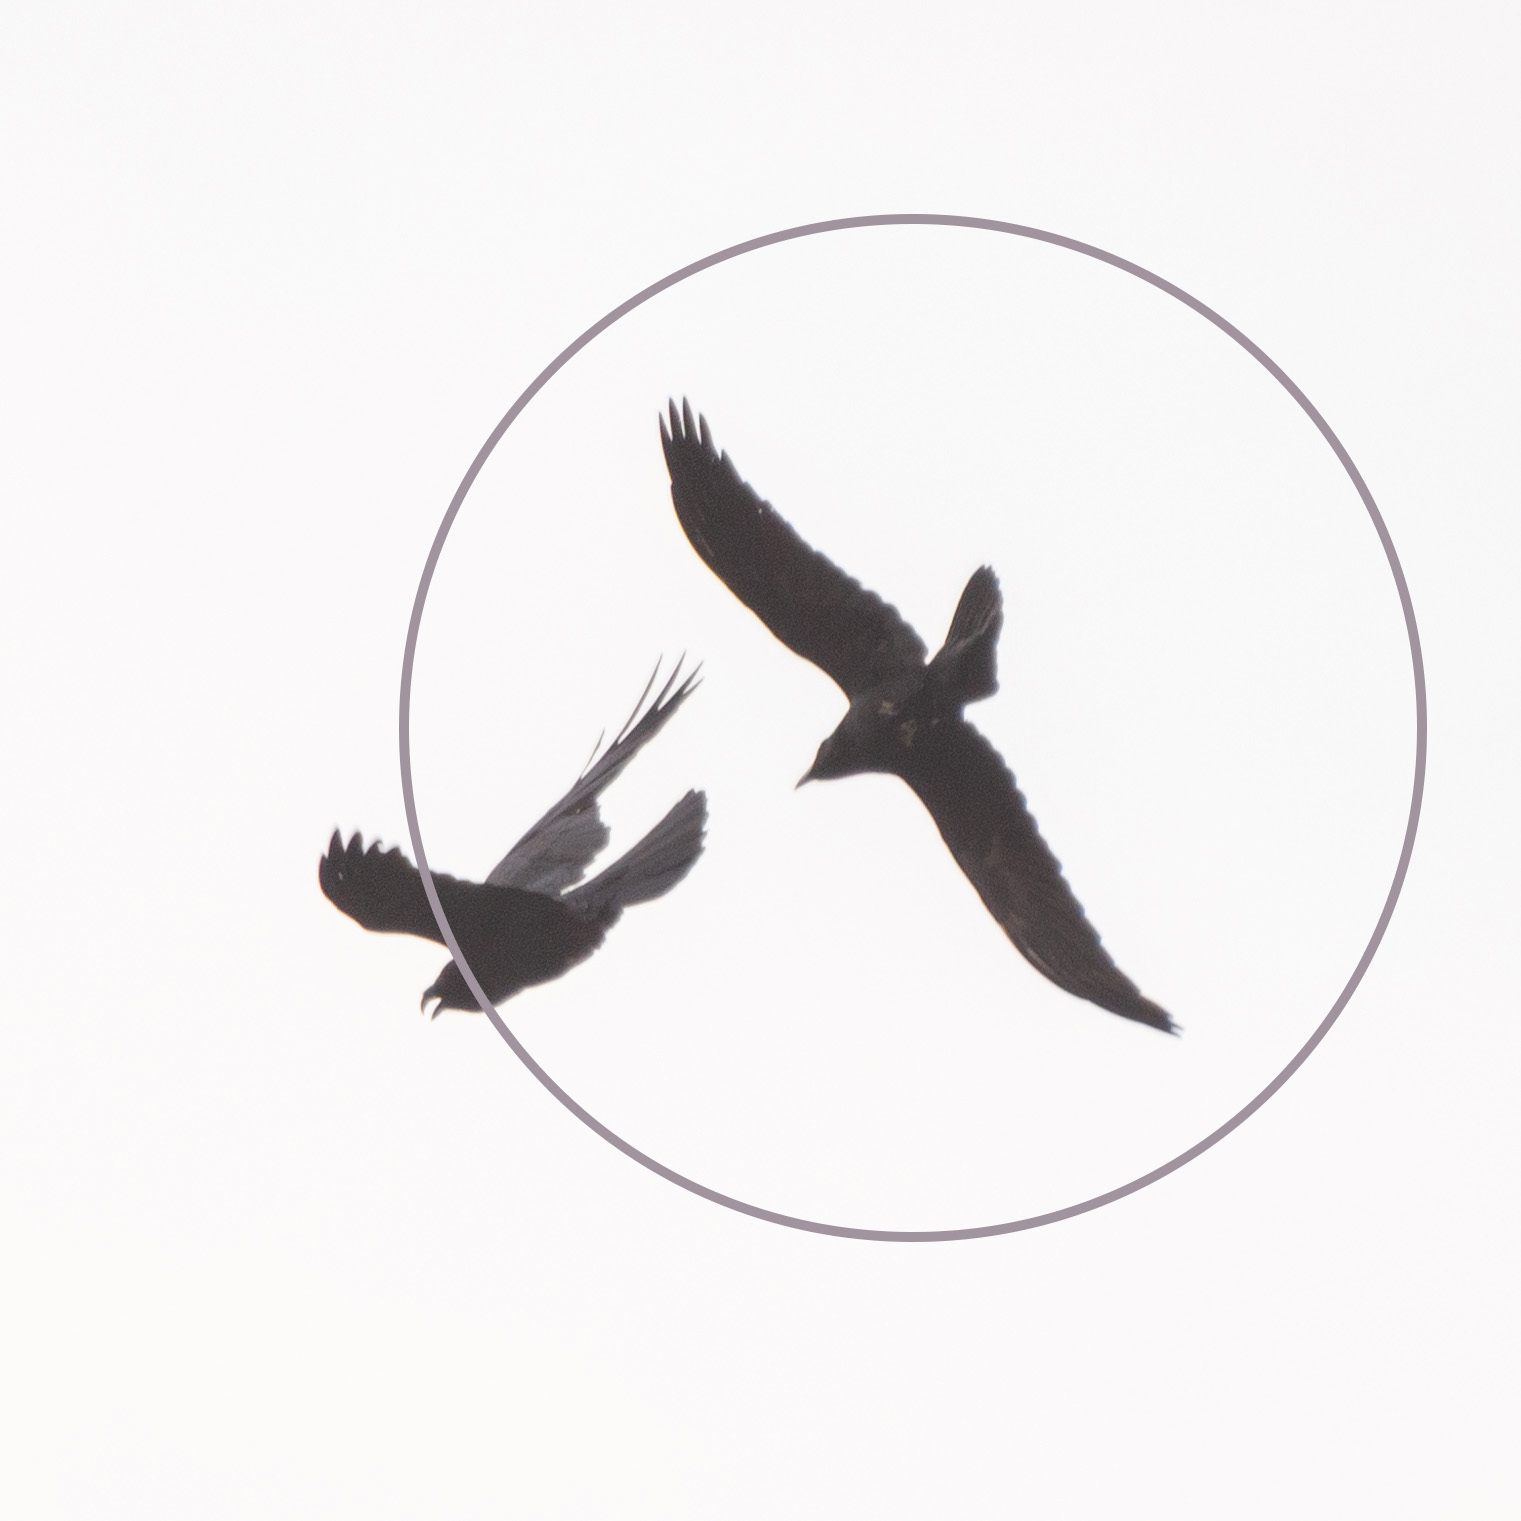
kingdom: Animalia
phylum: Chordata
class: Aves
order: Passeriformes
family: Corvidae
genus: Corvus
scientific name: Corvus corax
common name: Common raven
